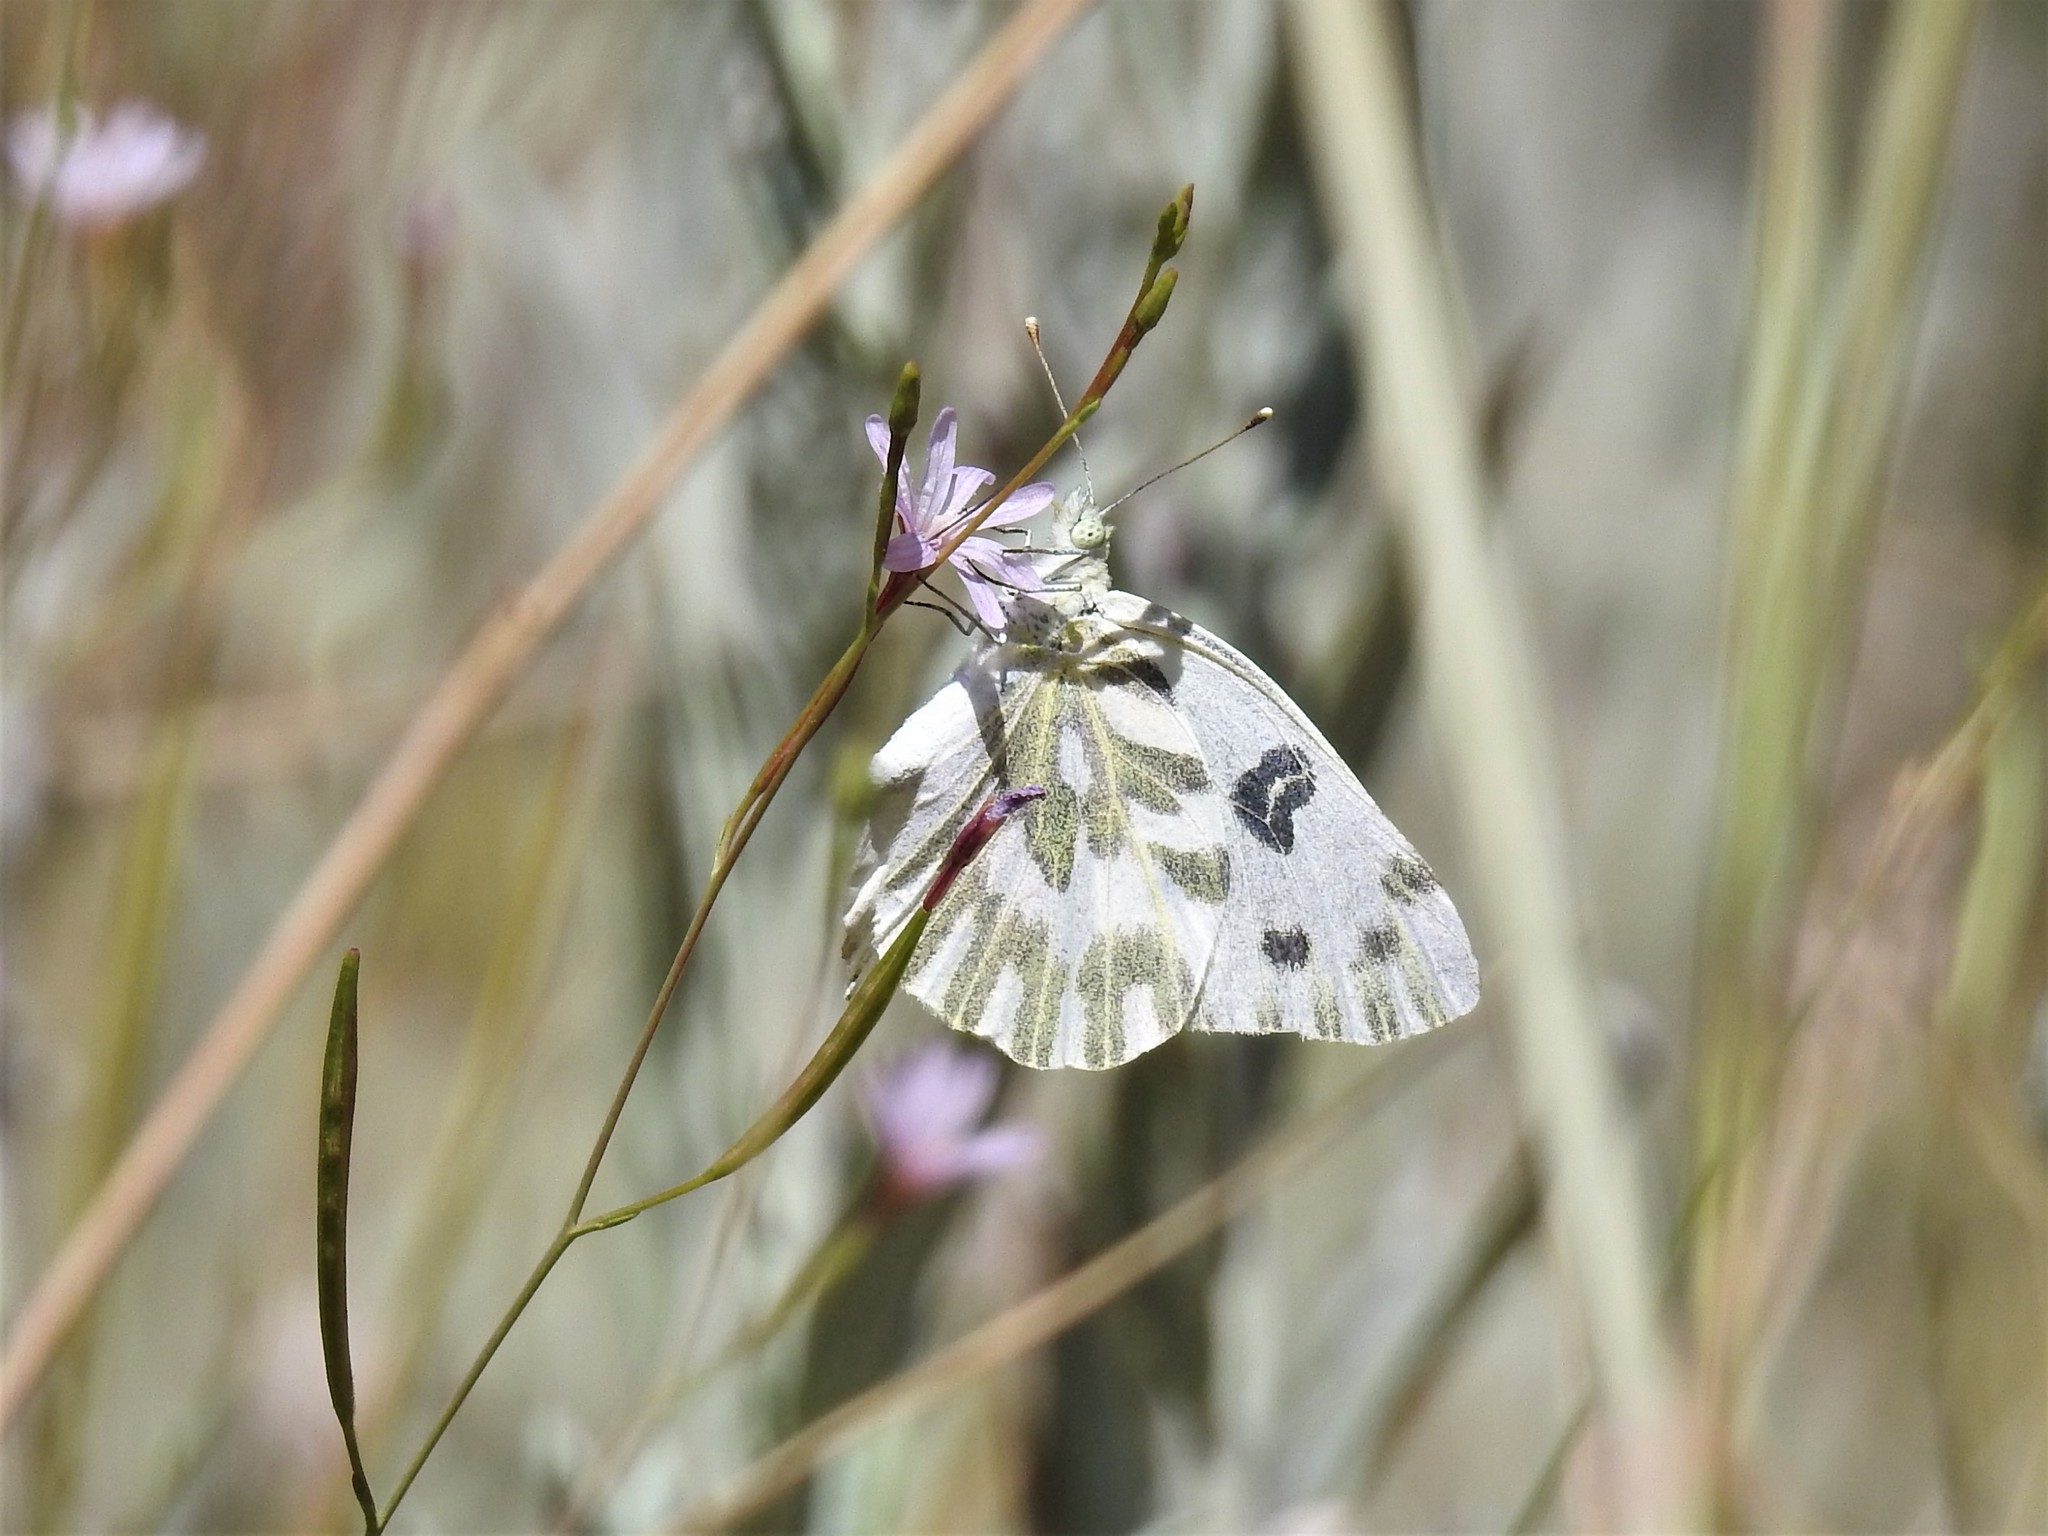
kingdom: Animalia
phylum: Arthropoda
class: Insecta
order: Lepidoptera
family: Pieridae
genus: Pontia
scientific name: Pontia beckerii
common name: Becker's white
